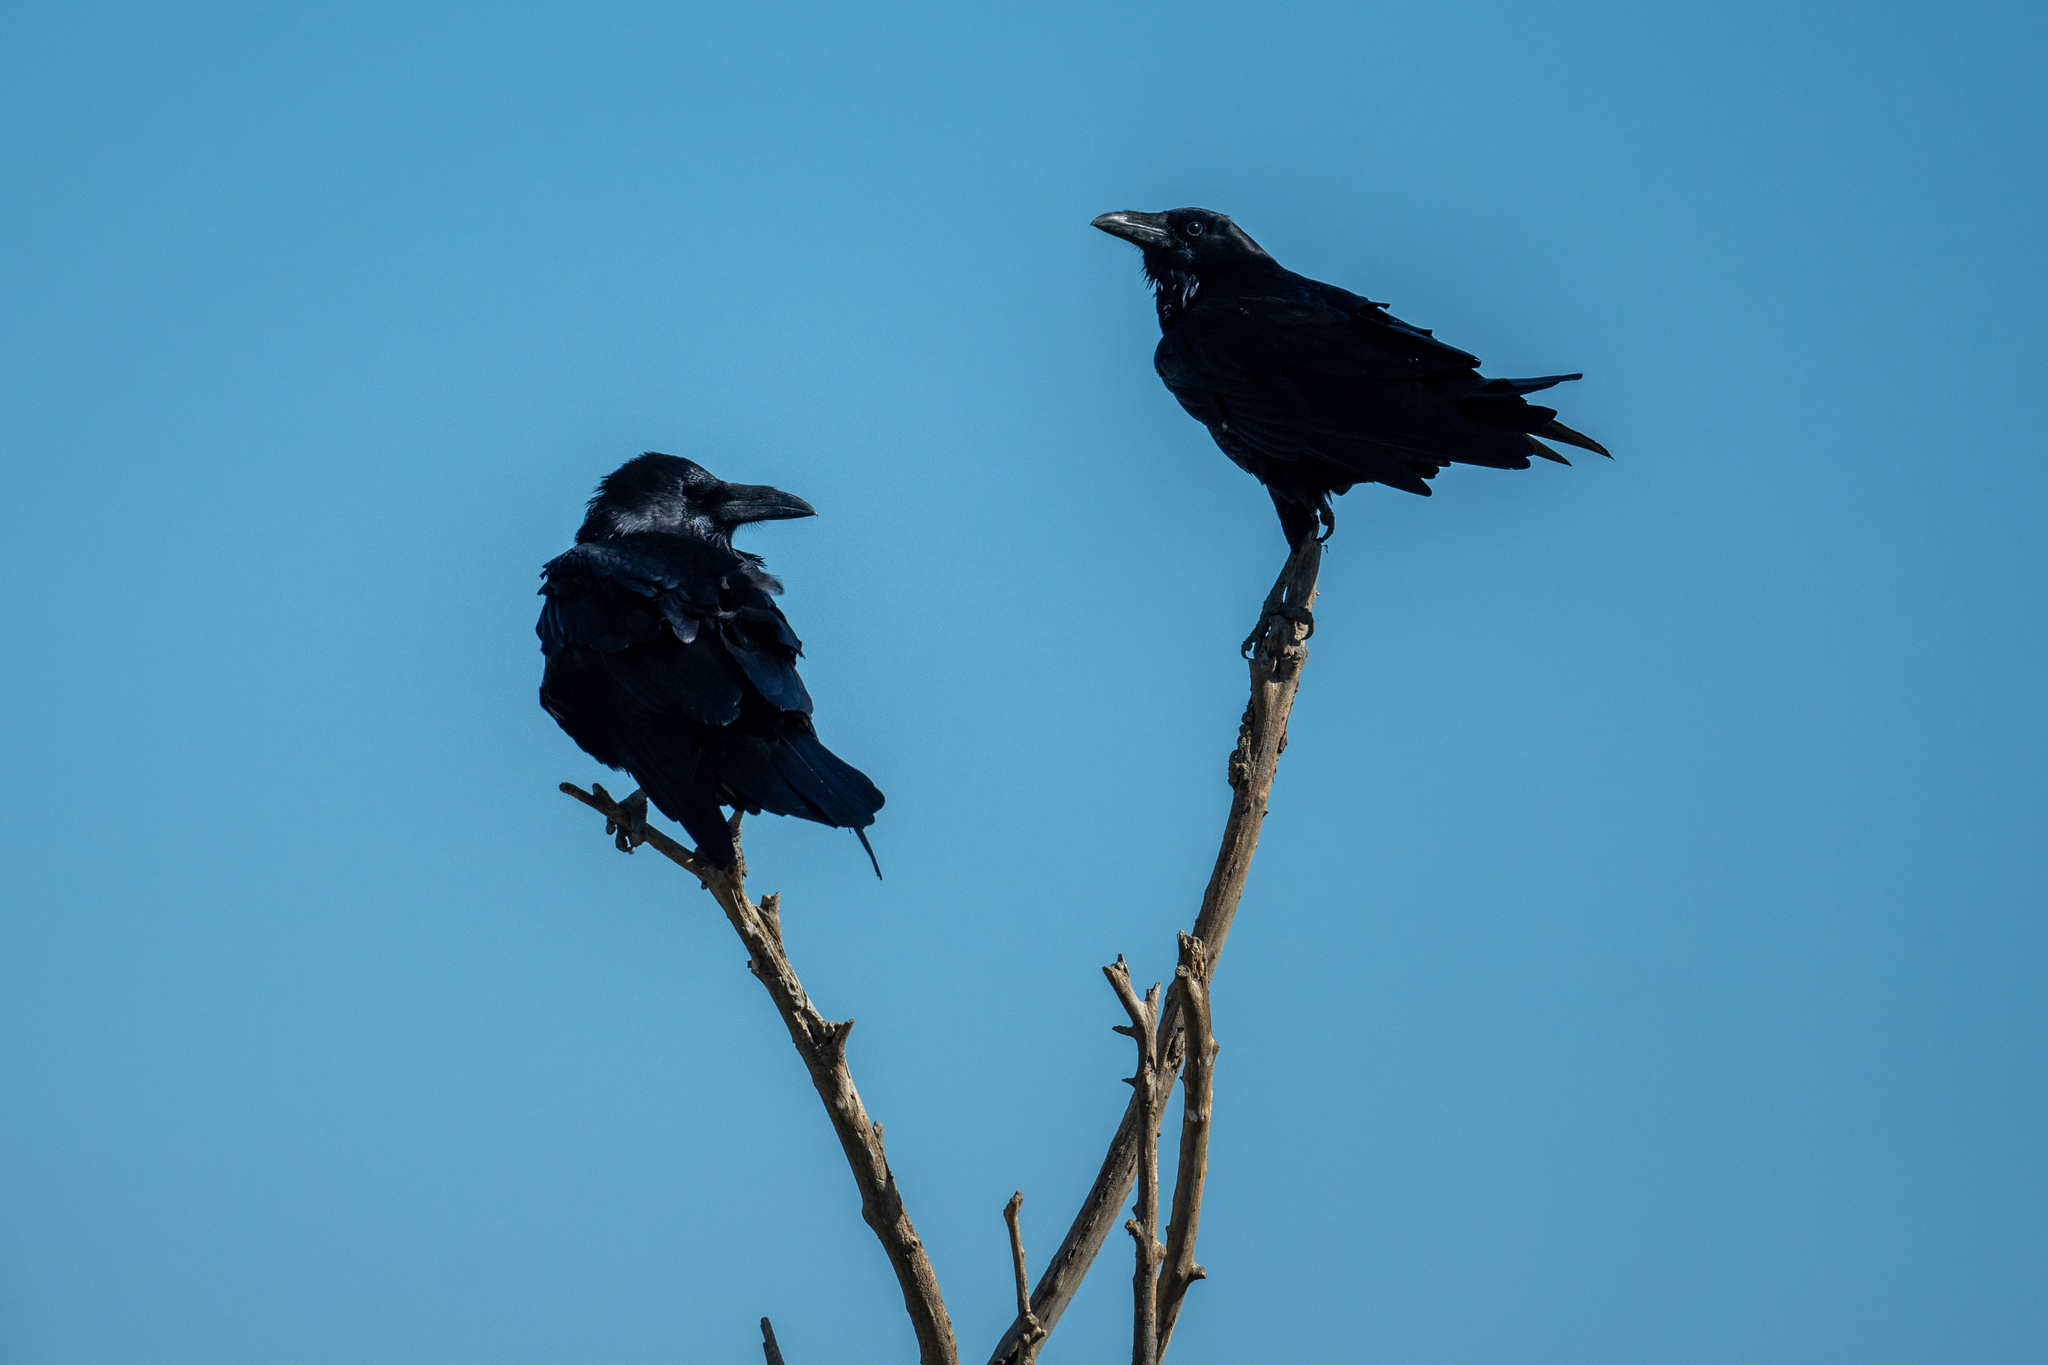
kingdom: Animalia
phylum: Chordata
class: Aves
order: Passeriformes
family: Corvidae
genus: Corvus
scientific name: Corvus corax
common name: Common raven
